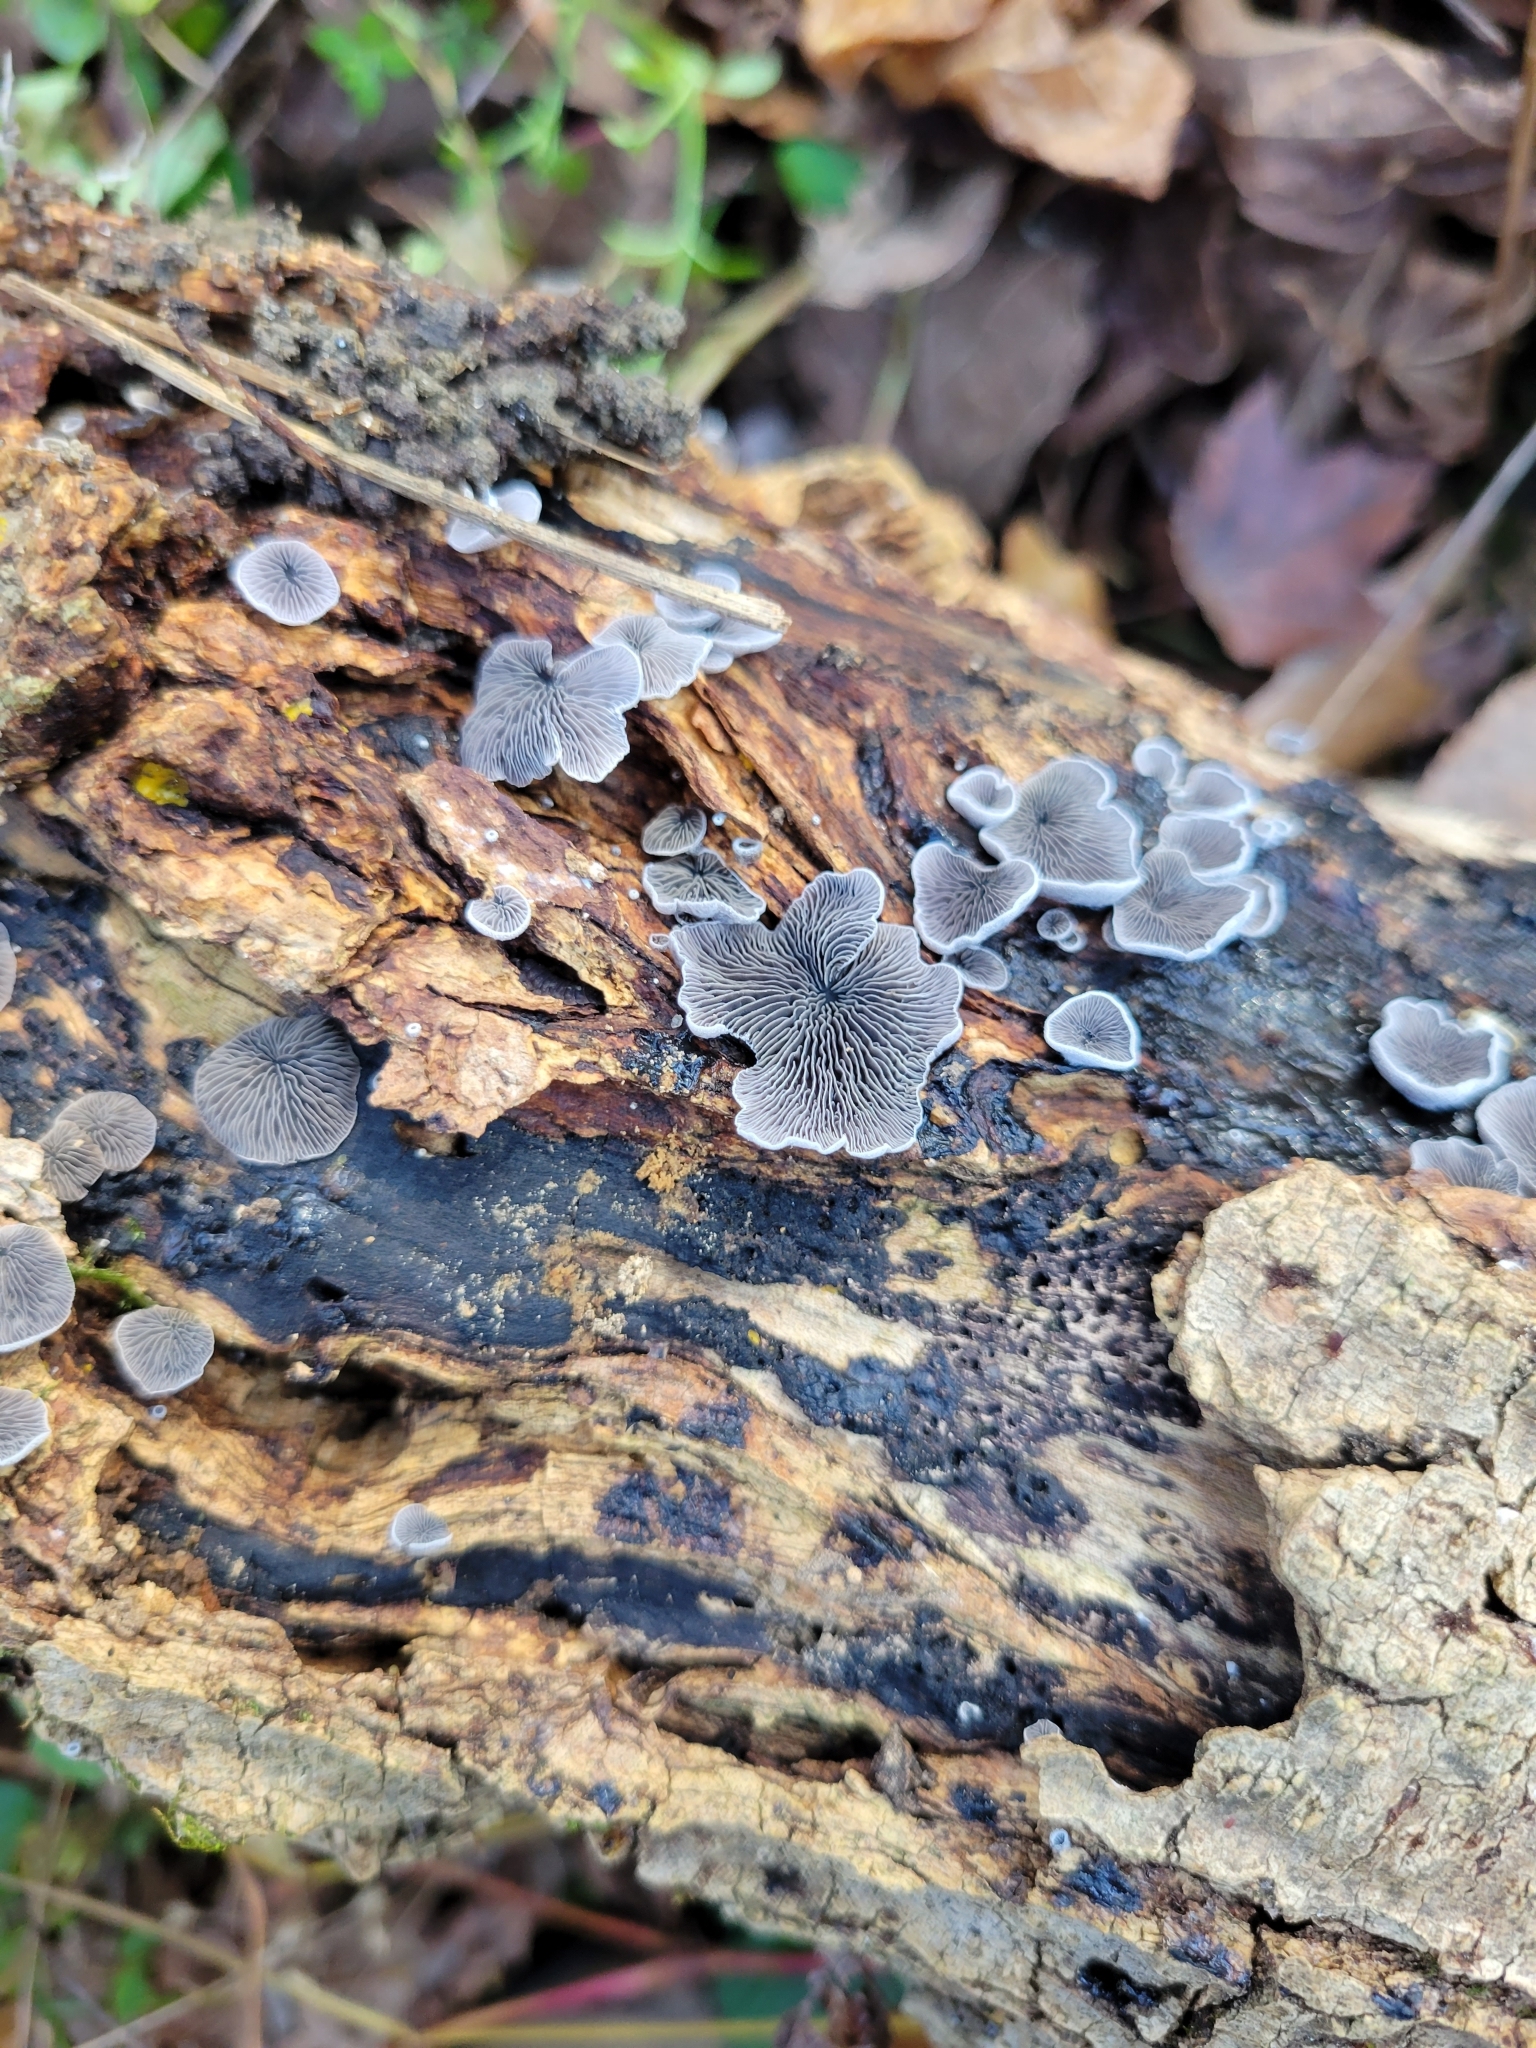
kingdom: Fungi
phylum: Basidiomycota
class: Agaricomycetes
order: Agaricales
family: Pleurotaceae
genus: Resupinatus
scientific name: Resupinatus applicatus
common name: Smoked oysterling
